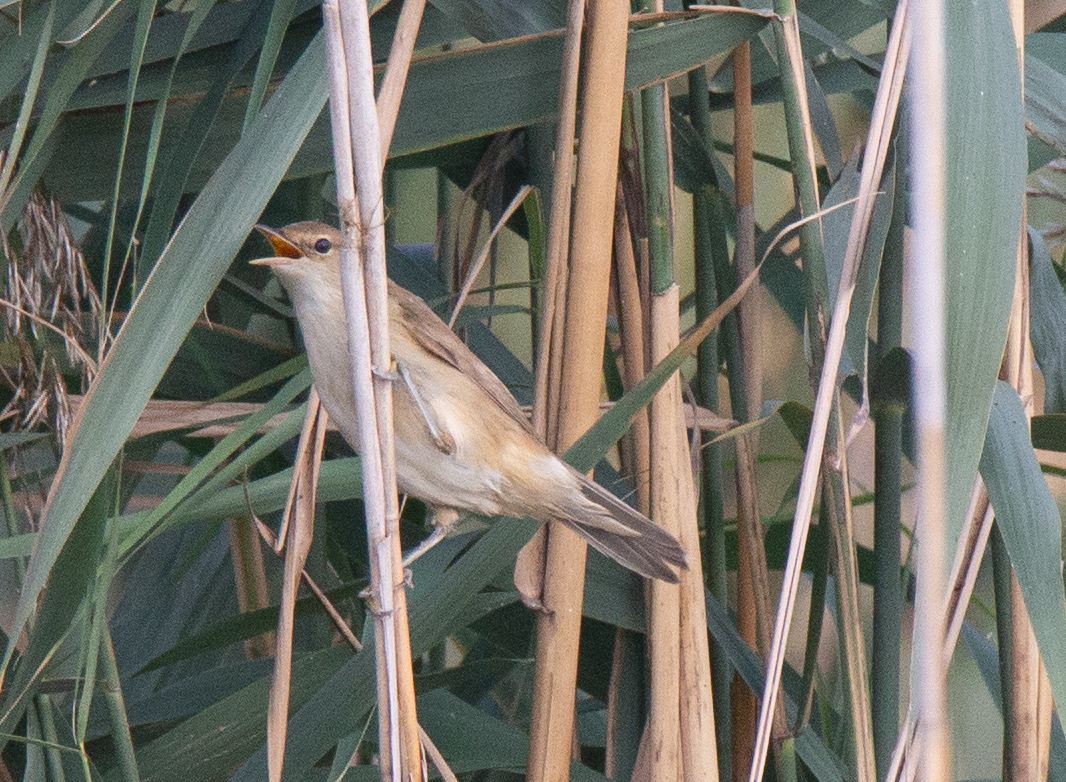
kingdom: Animalia
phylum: Chordata
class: Aves
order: Passeriformes
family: Acrocephalidae
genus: Acrocephalus
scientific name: Acrocephalus scirpaceus
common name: Eurasian reed warbler
